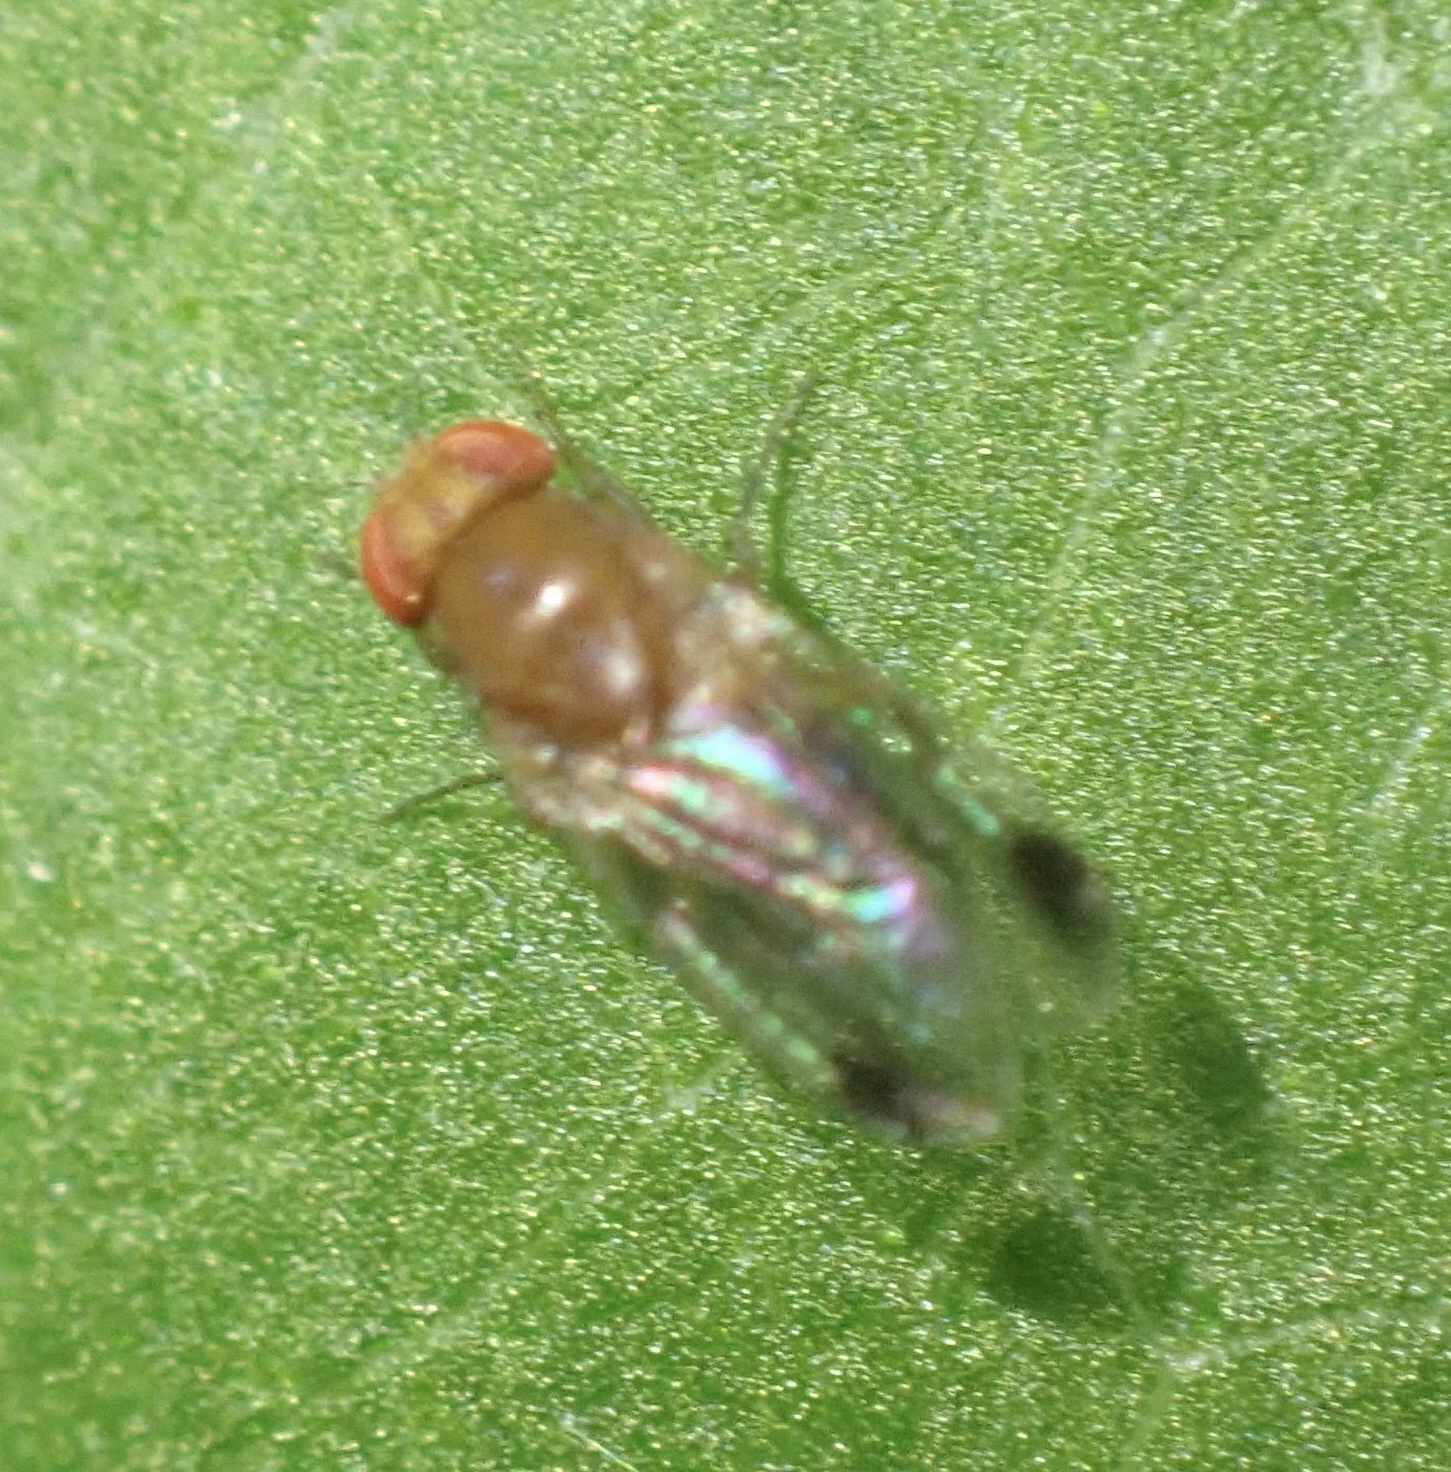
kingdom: Animalia
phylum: Arthropoda
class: Insecta
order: Diptera
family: Drosophilidae
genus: Drosophila
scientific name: Drosophila suzukii
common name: Spotted-wing drosophila
